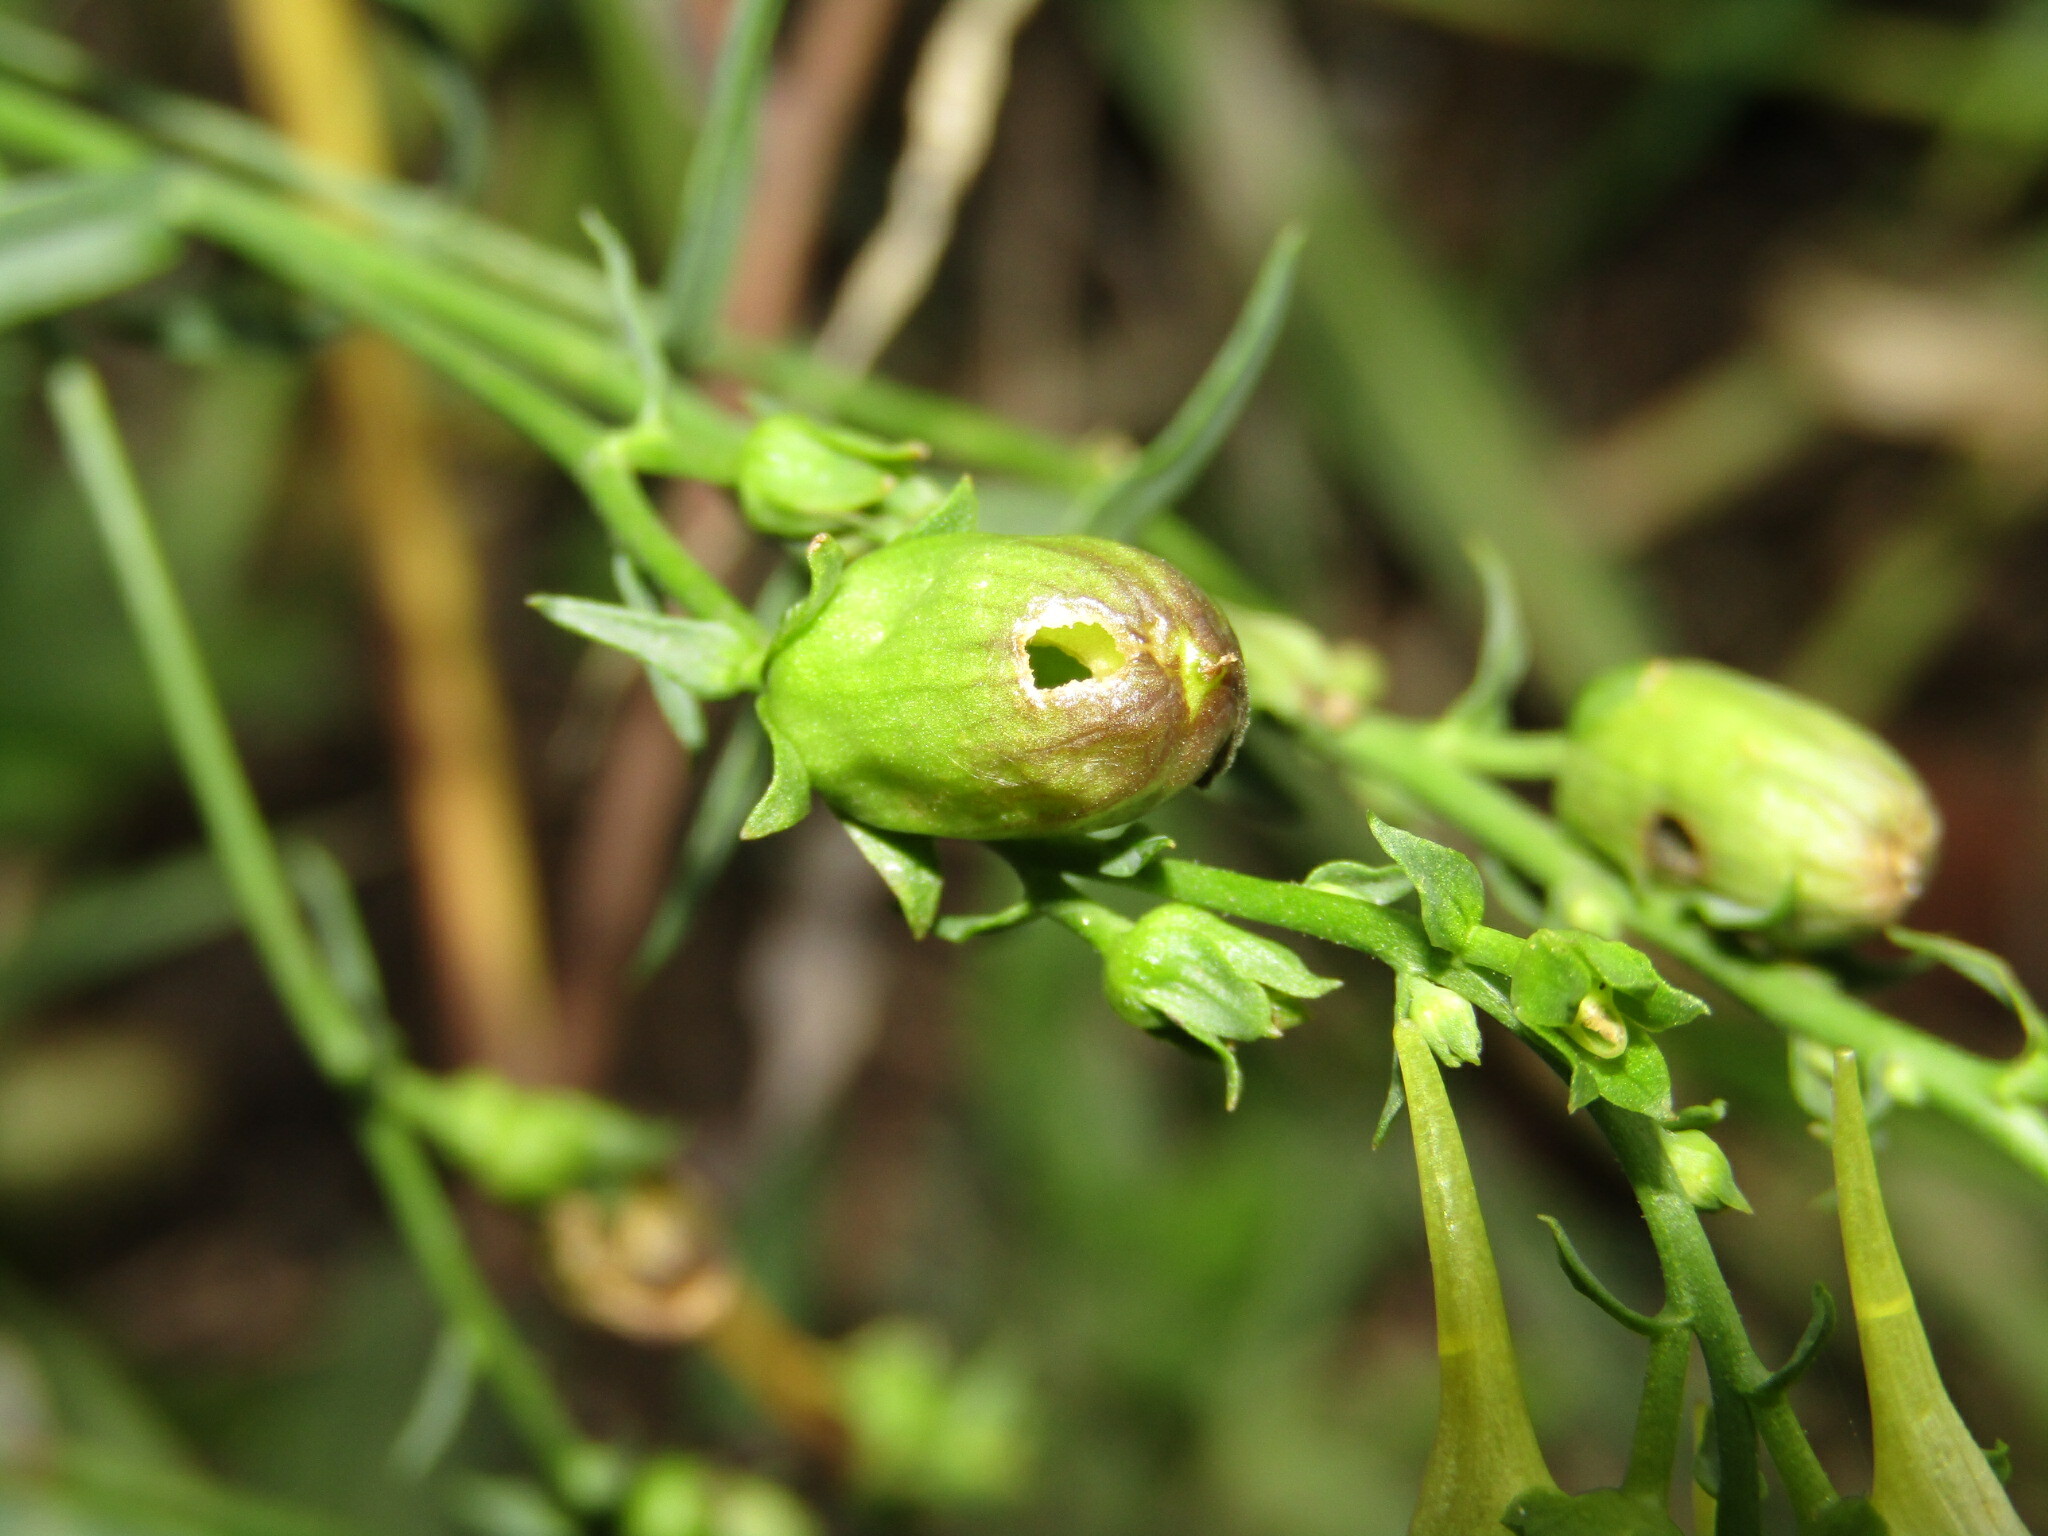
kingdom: Plantae
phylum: Tracheophyta
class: Magnoliopsida
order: Lamiales
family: Plantaginaceae
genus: Linaria
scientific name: Linaria vulgaris
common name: Butter and eggs
